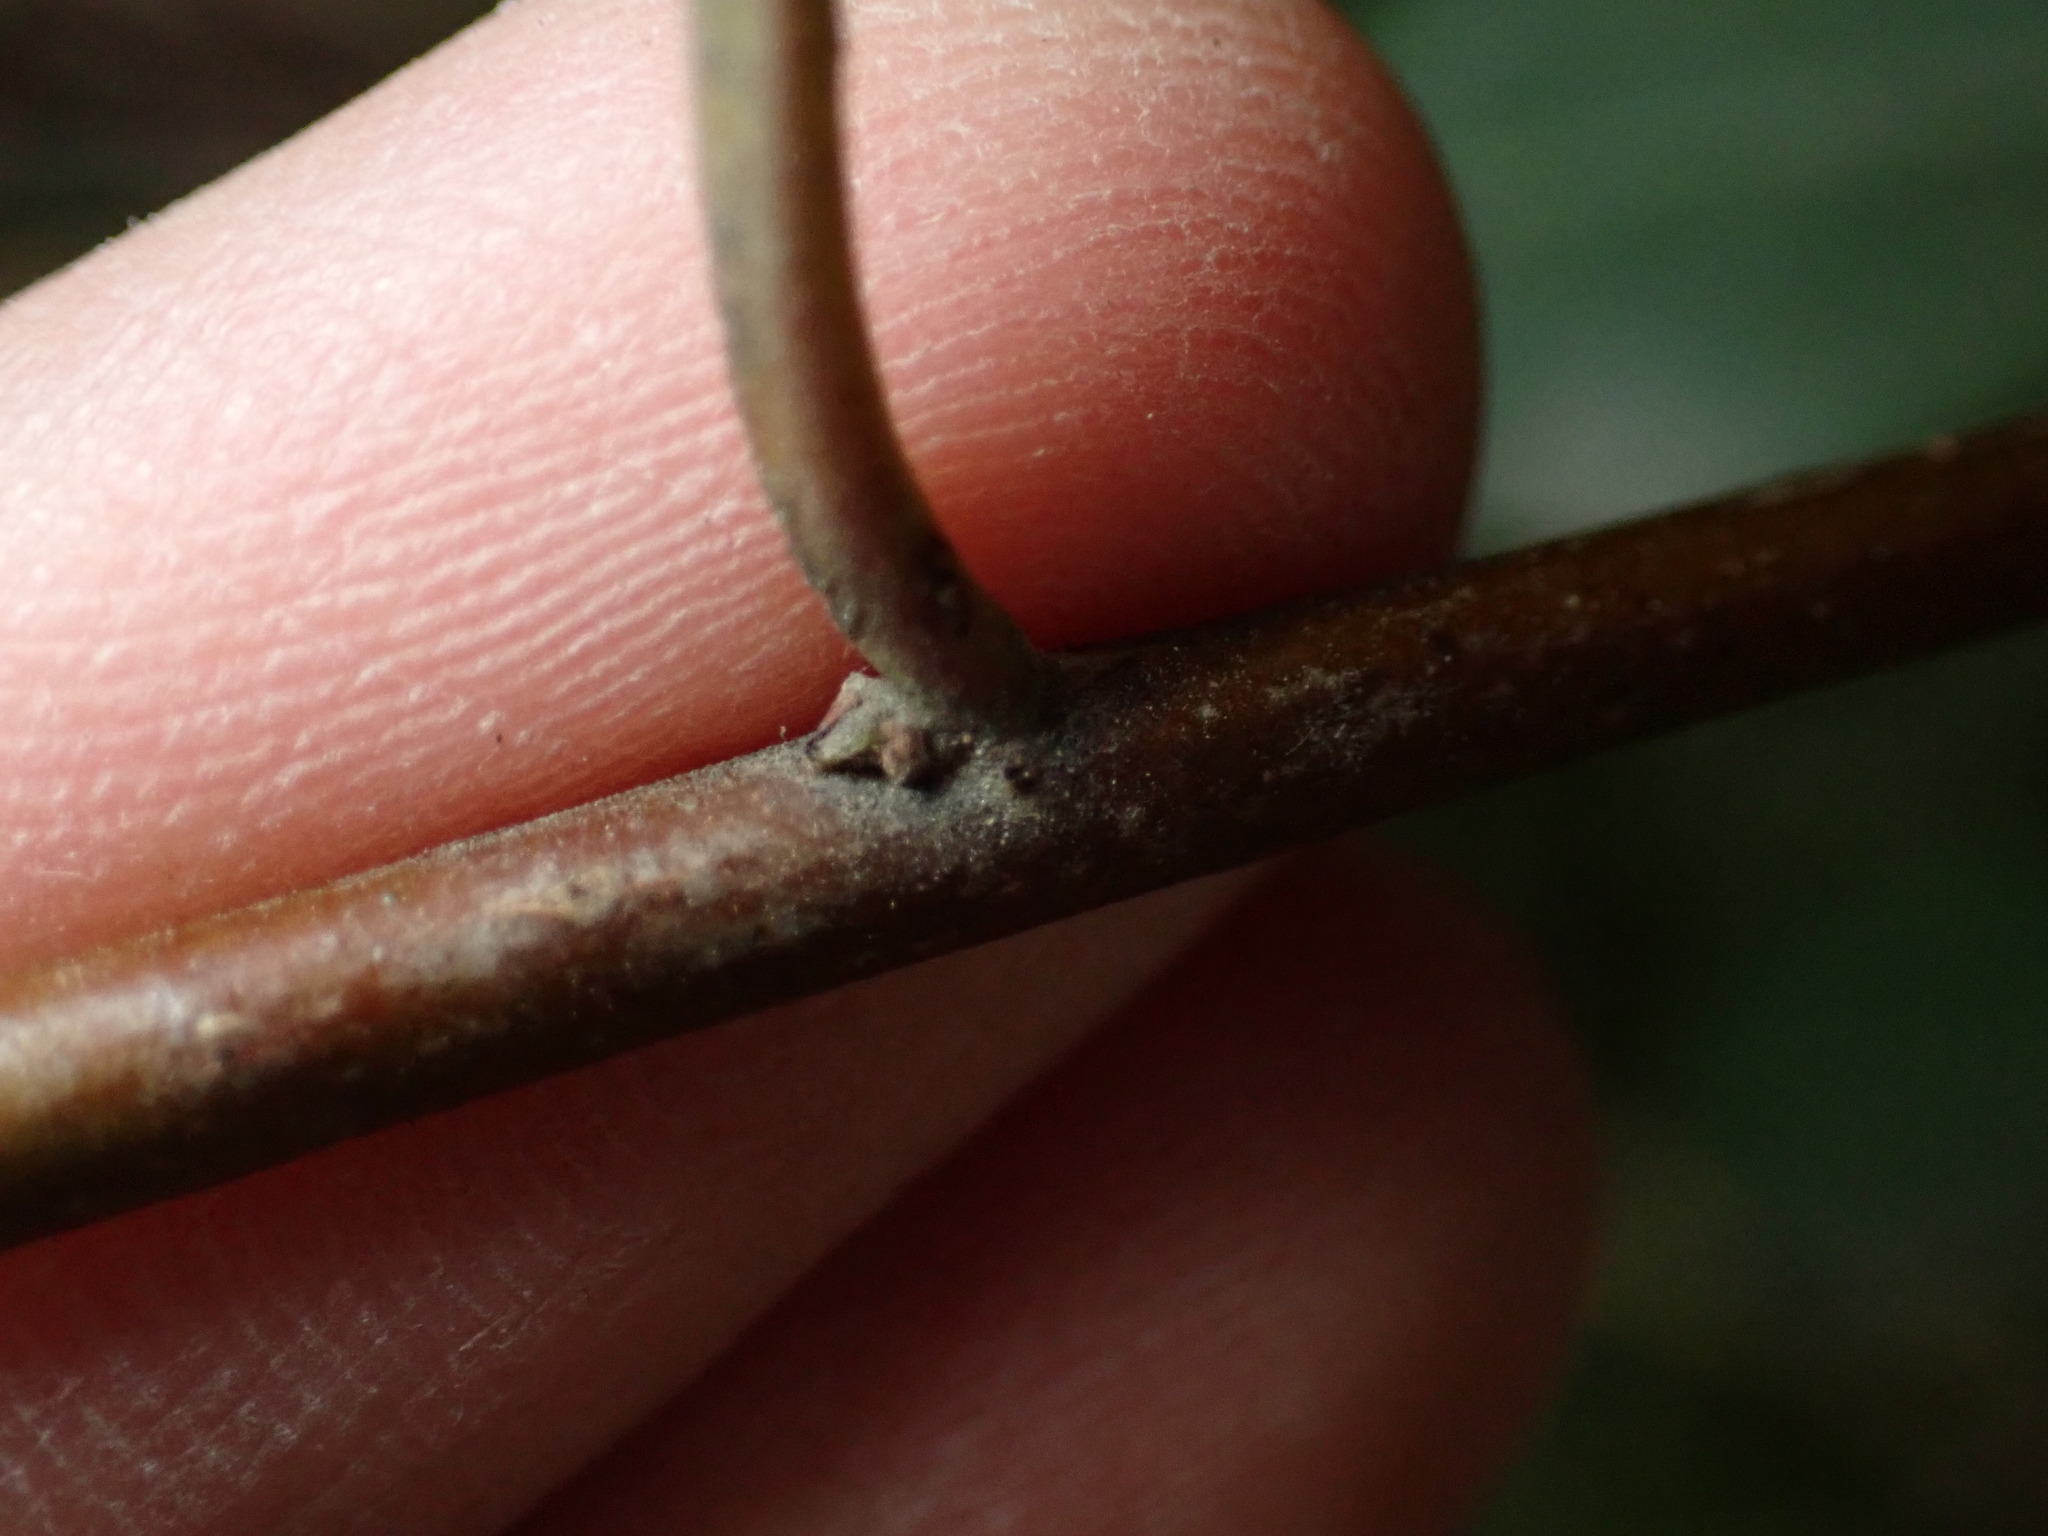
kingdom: Plantae
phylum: Tracheophyta
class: Magnoliopsida
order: Rosales
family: Rhamnaceae
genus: Rhamnus
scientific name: Rhamnus alaternus
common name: Mediterranean buckthorn
